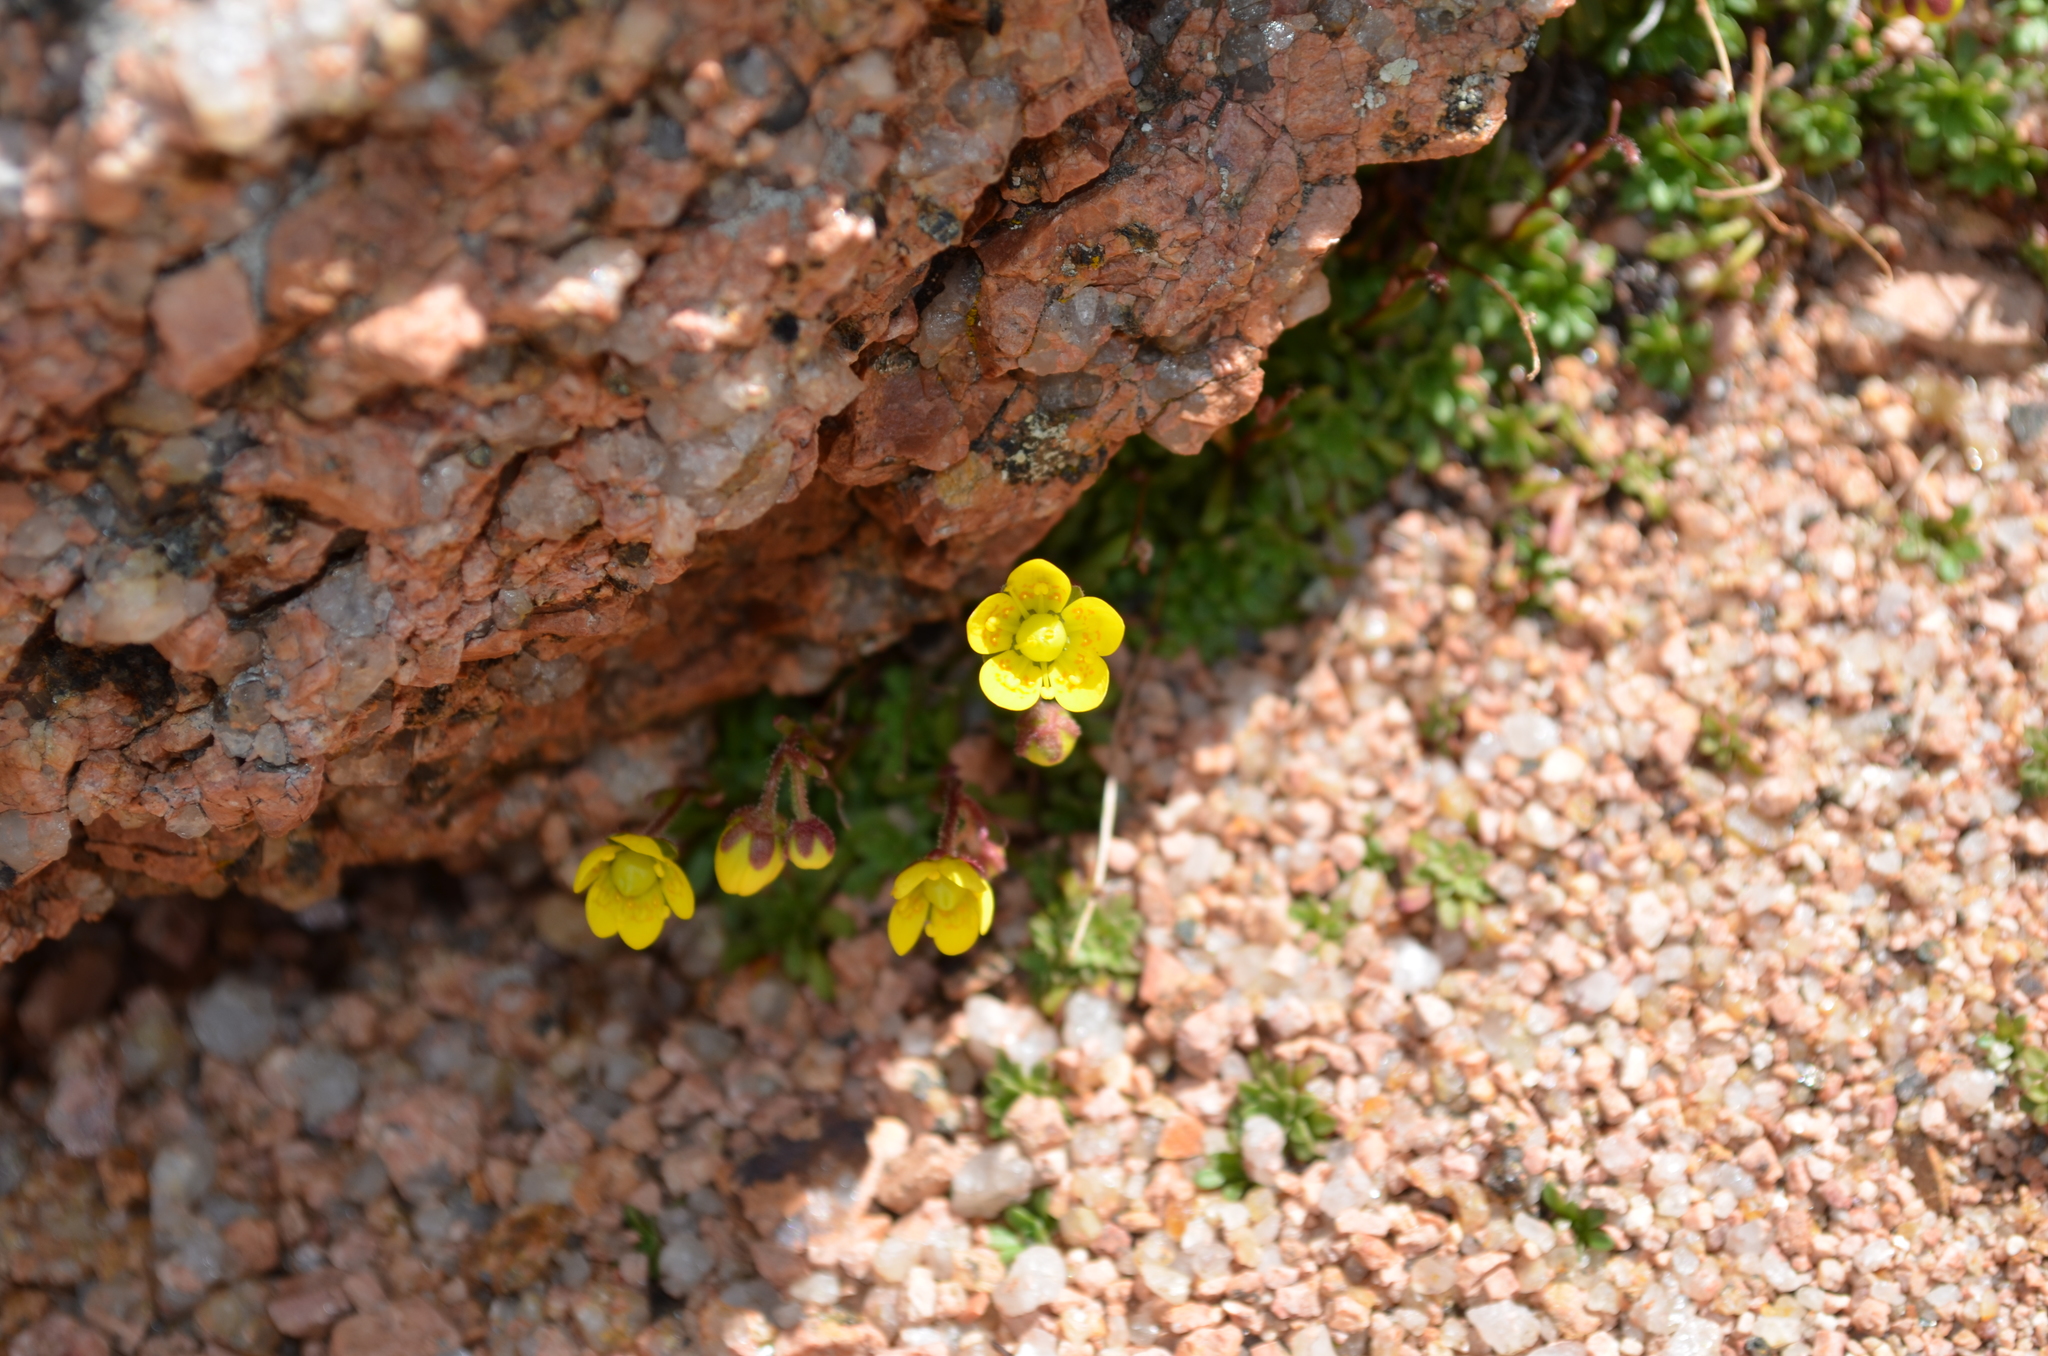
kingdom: Plantae
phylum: Tracheophyta
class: Magnoliopsida
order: Saxifragales
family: Saxifragaceae
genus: Saxifraga
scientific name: Saxifraga chrysantha
